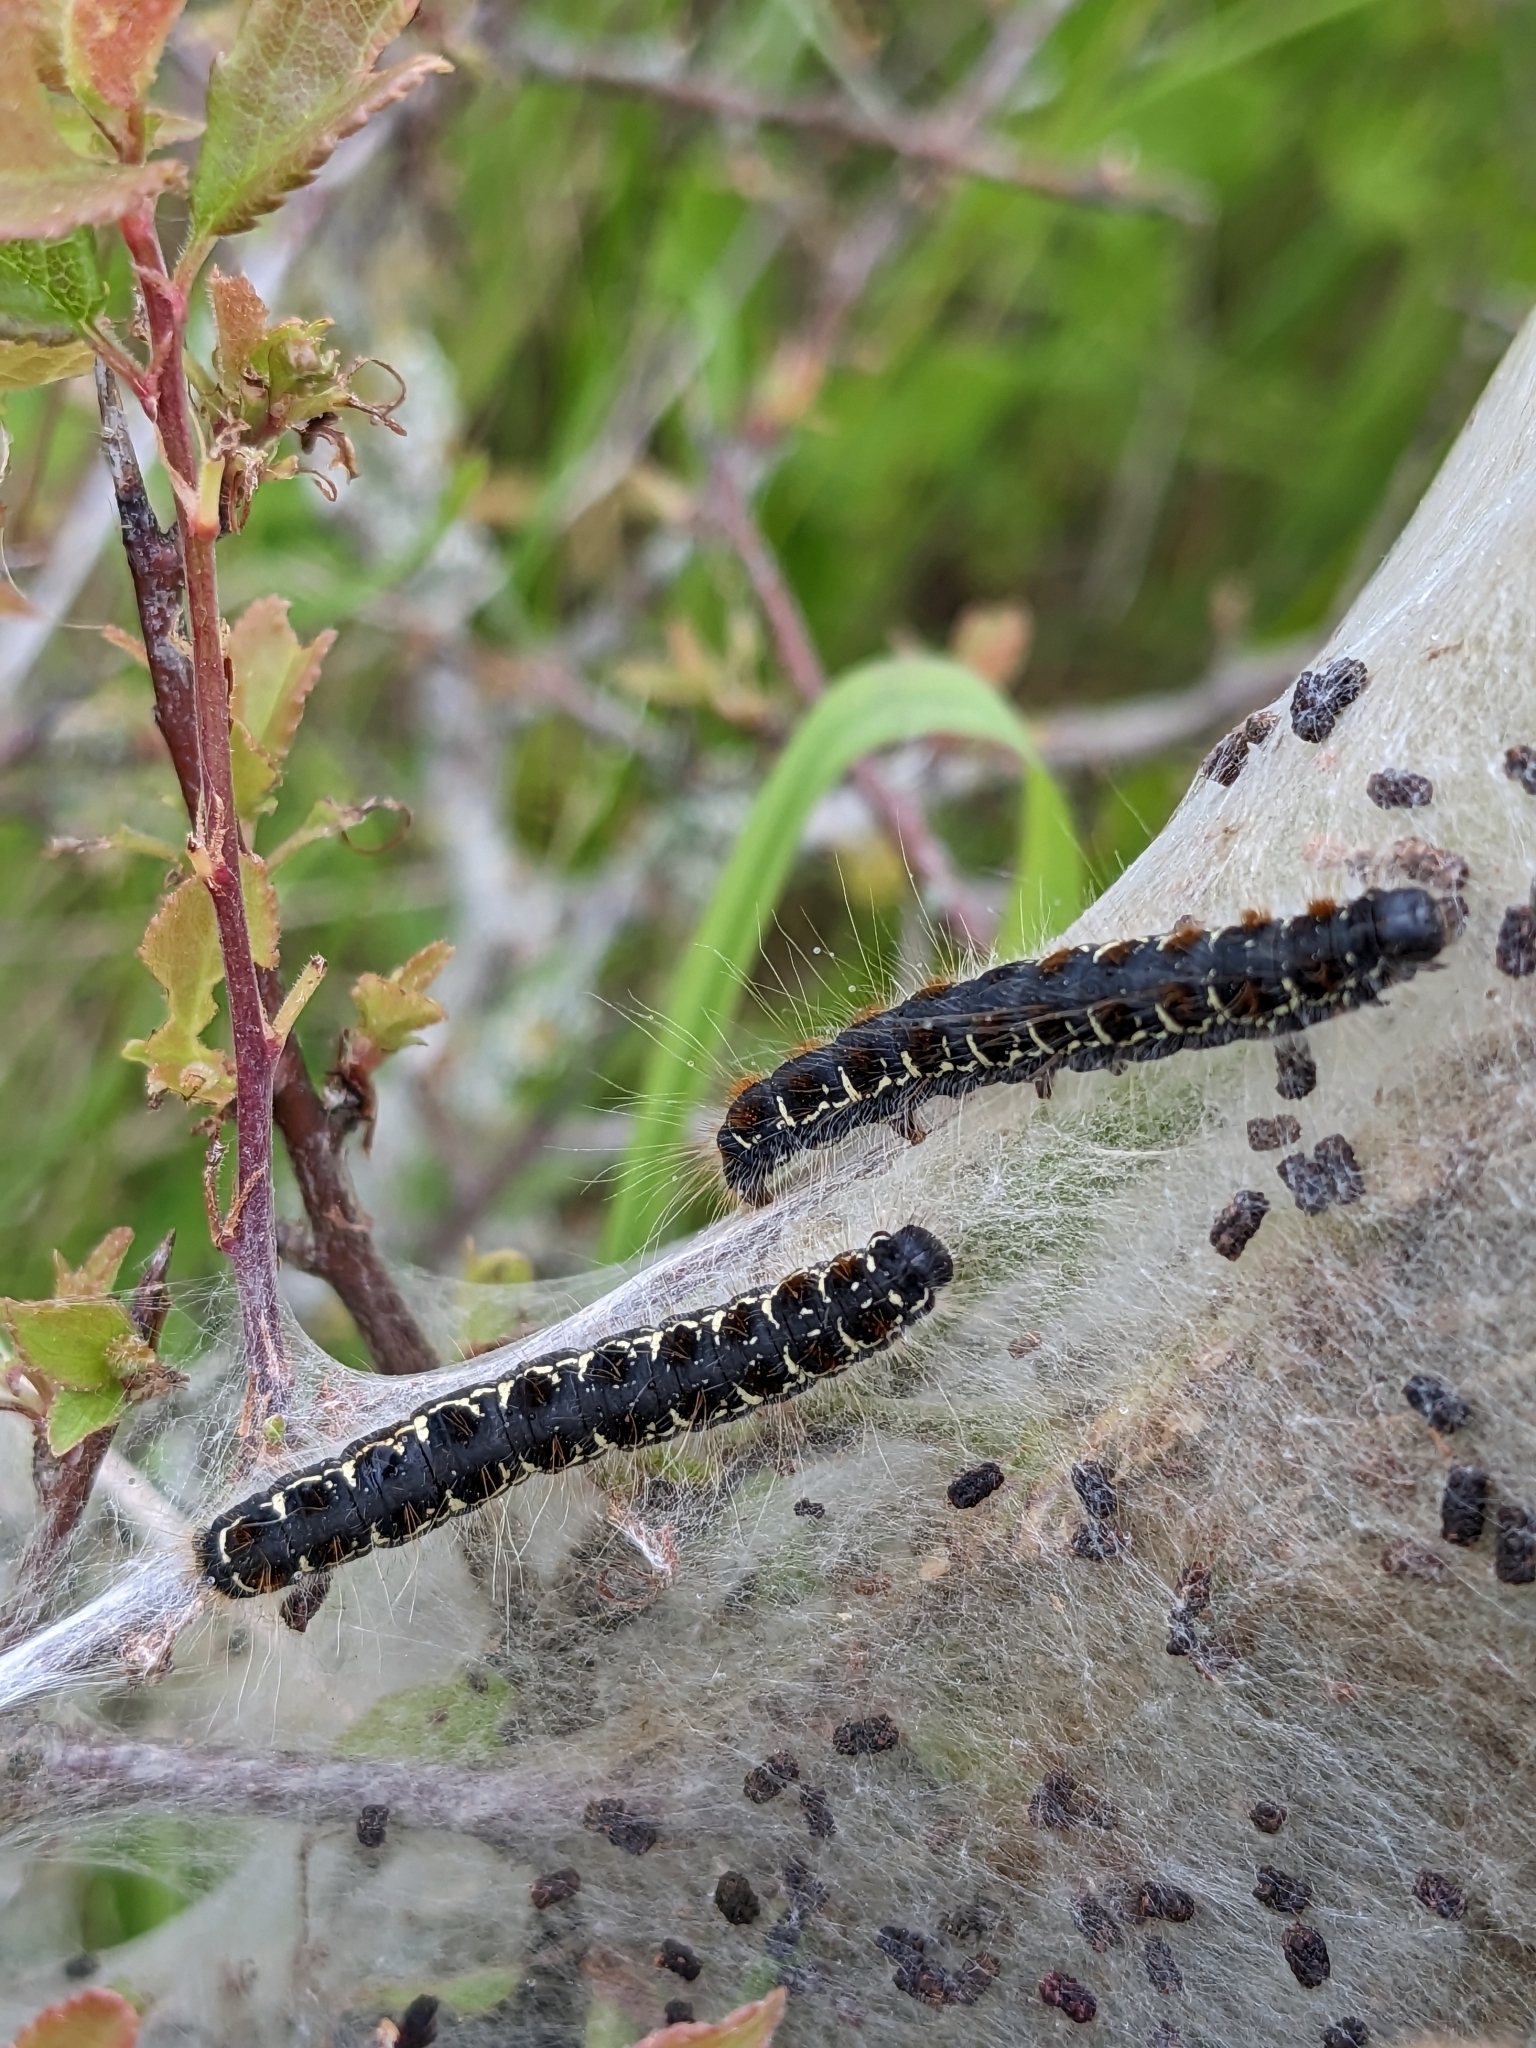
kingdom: Animalia
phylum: Arthropoda
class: Insecta
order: Lepidoptera
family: Lasiocampidae
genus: Eriogaster
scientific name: Eriogaster lanestris
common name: Small eggar
